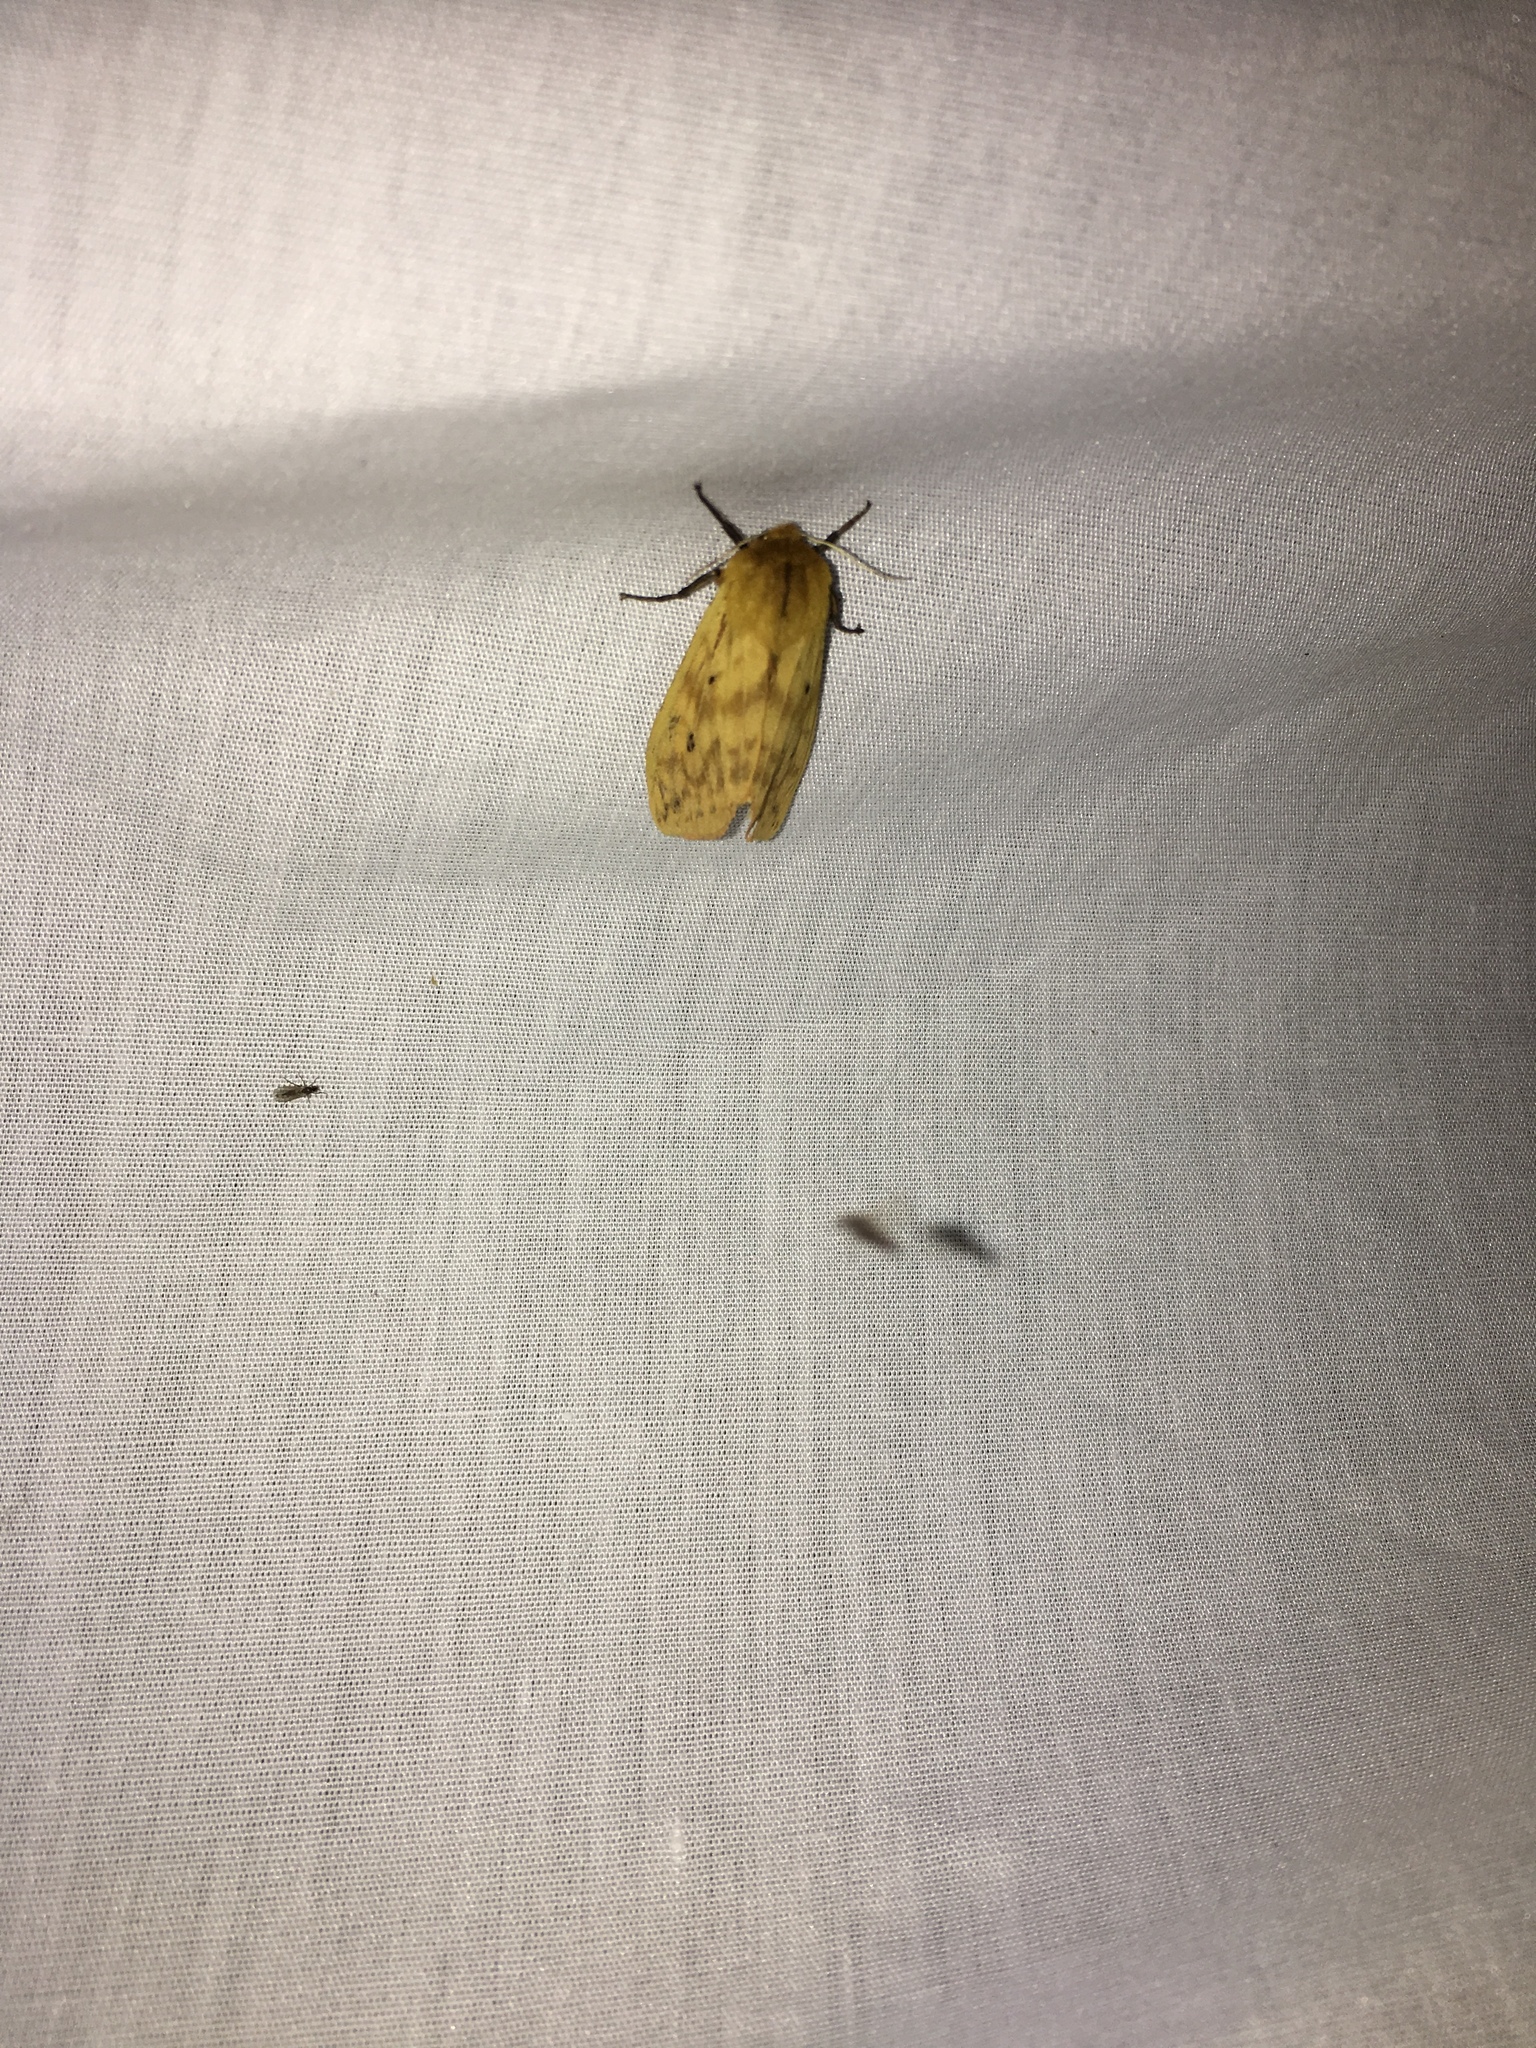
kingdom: Animalia
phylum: Arthropoda
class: Insecta
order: Lepidoptera
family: Erebidae
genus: Pyrrharctia
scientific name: Pyrrharctia isabella
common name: Isabella tiger moth
